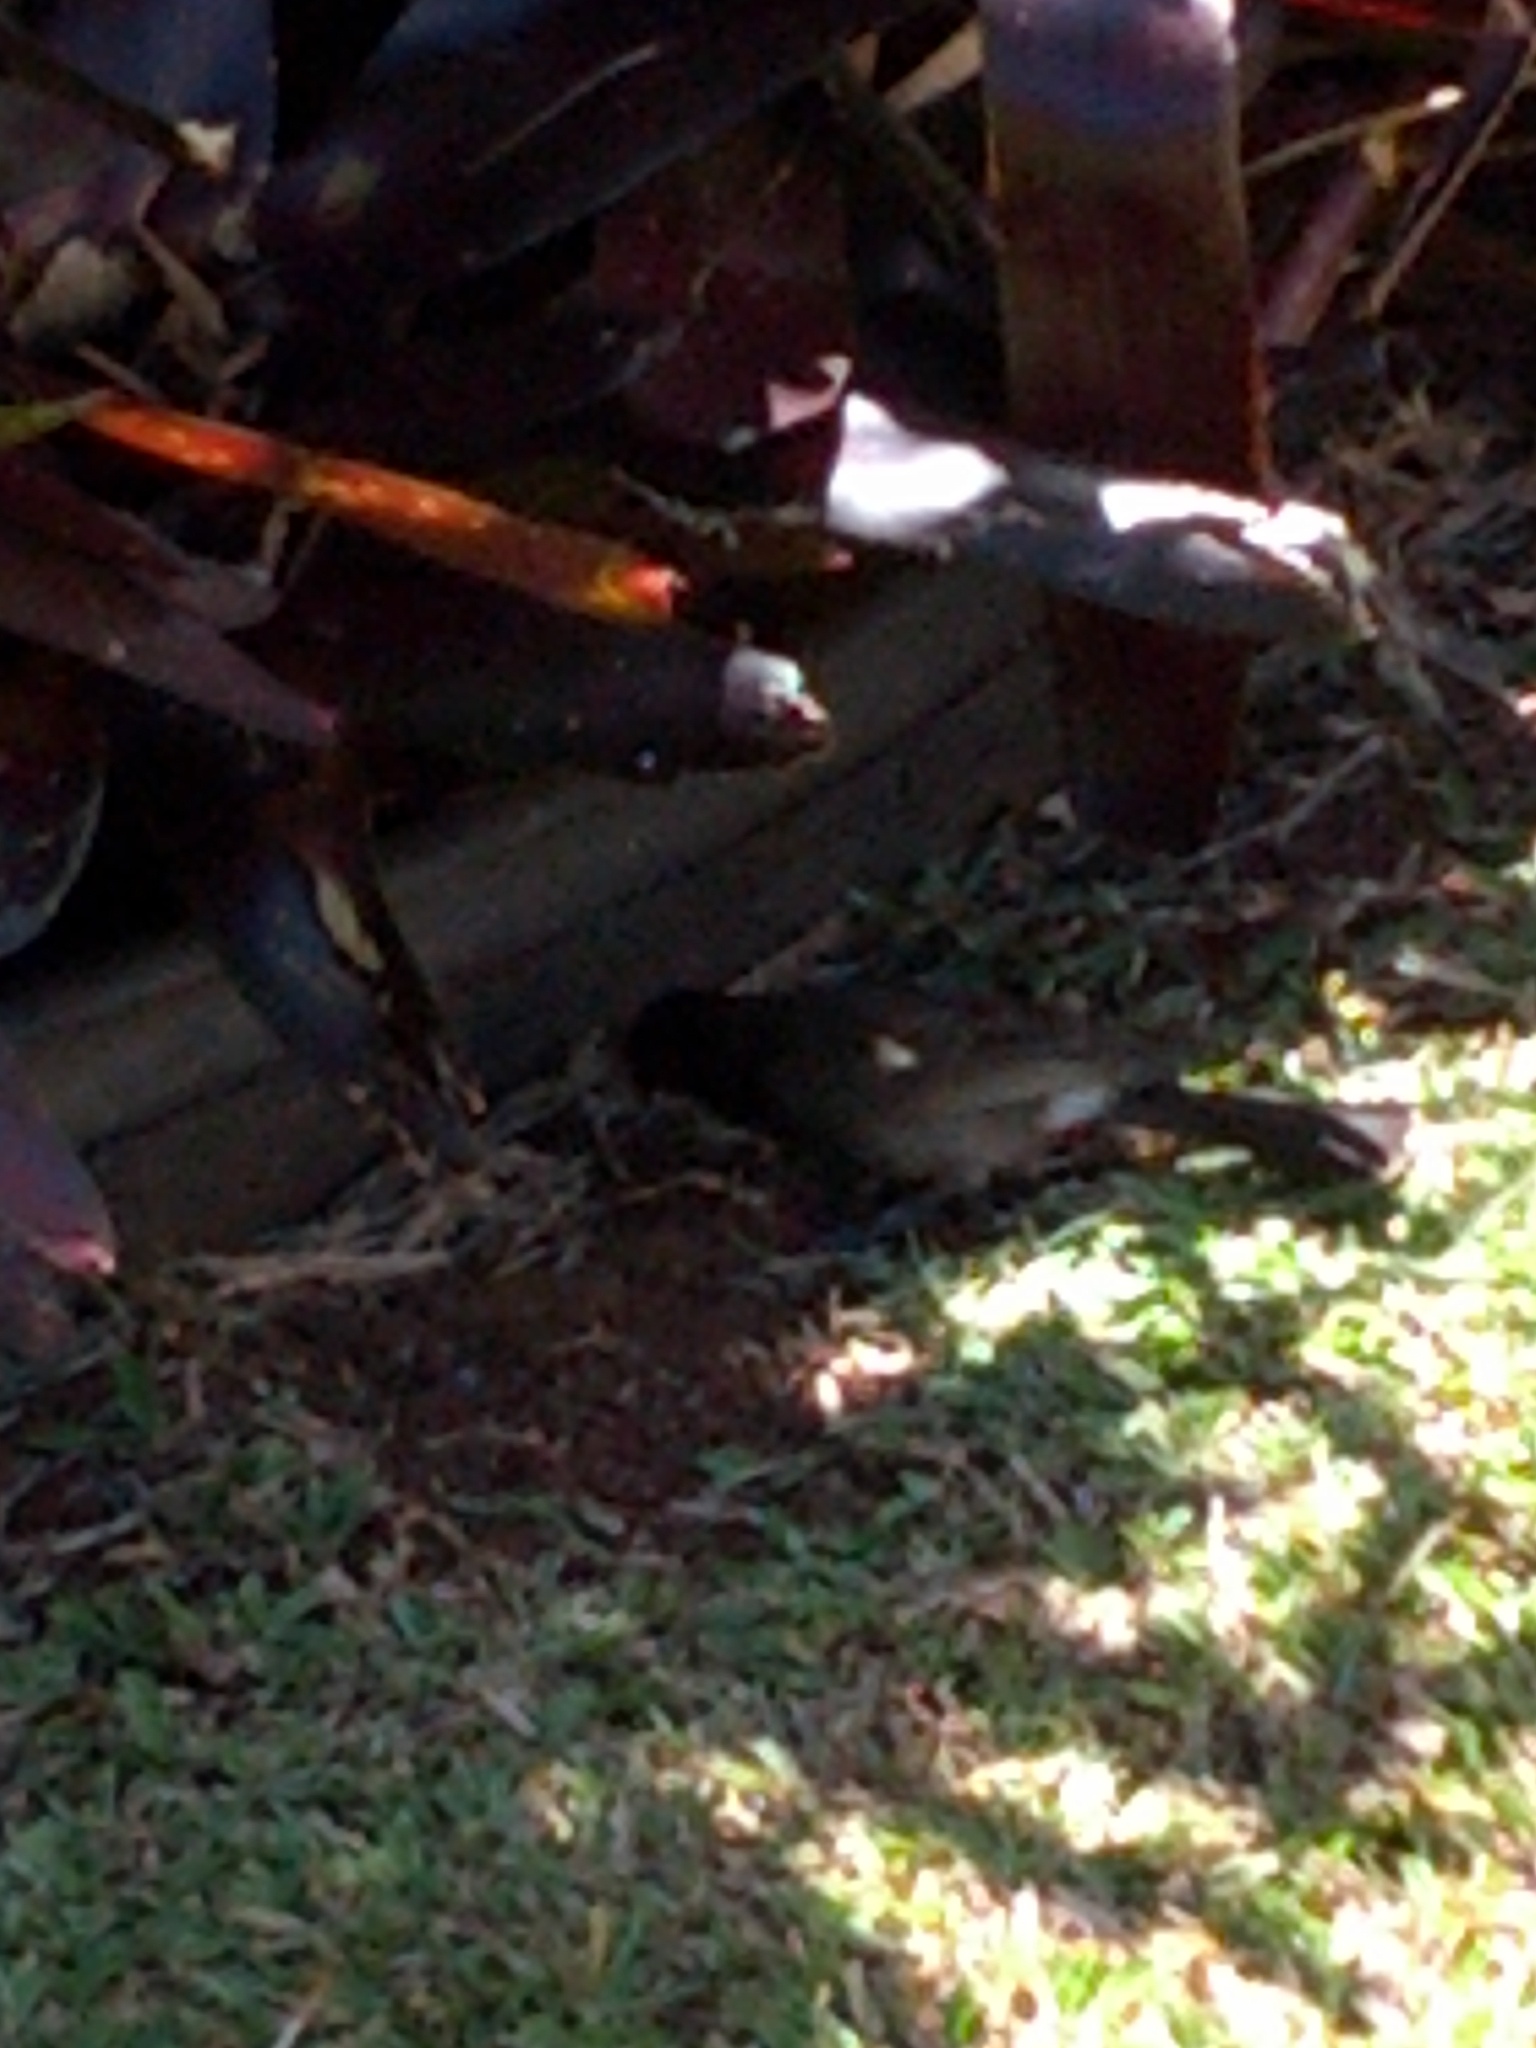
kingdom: Animalia
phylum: Chordata
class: Aves
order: Passeriformes
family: Pycnonotidae
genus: Pycnonotus
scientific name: Pycnonotus cafer
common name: Red-vented bulbul
